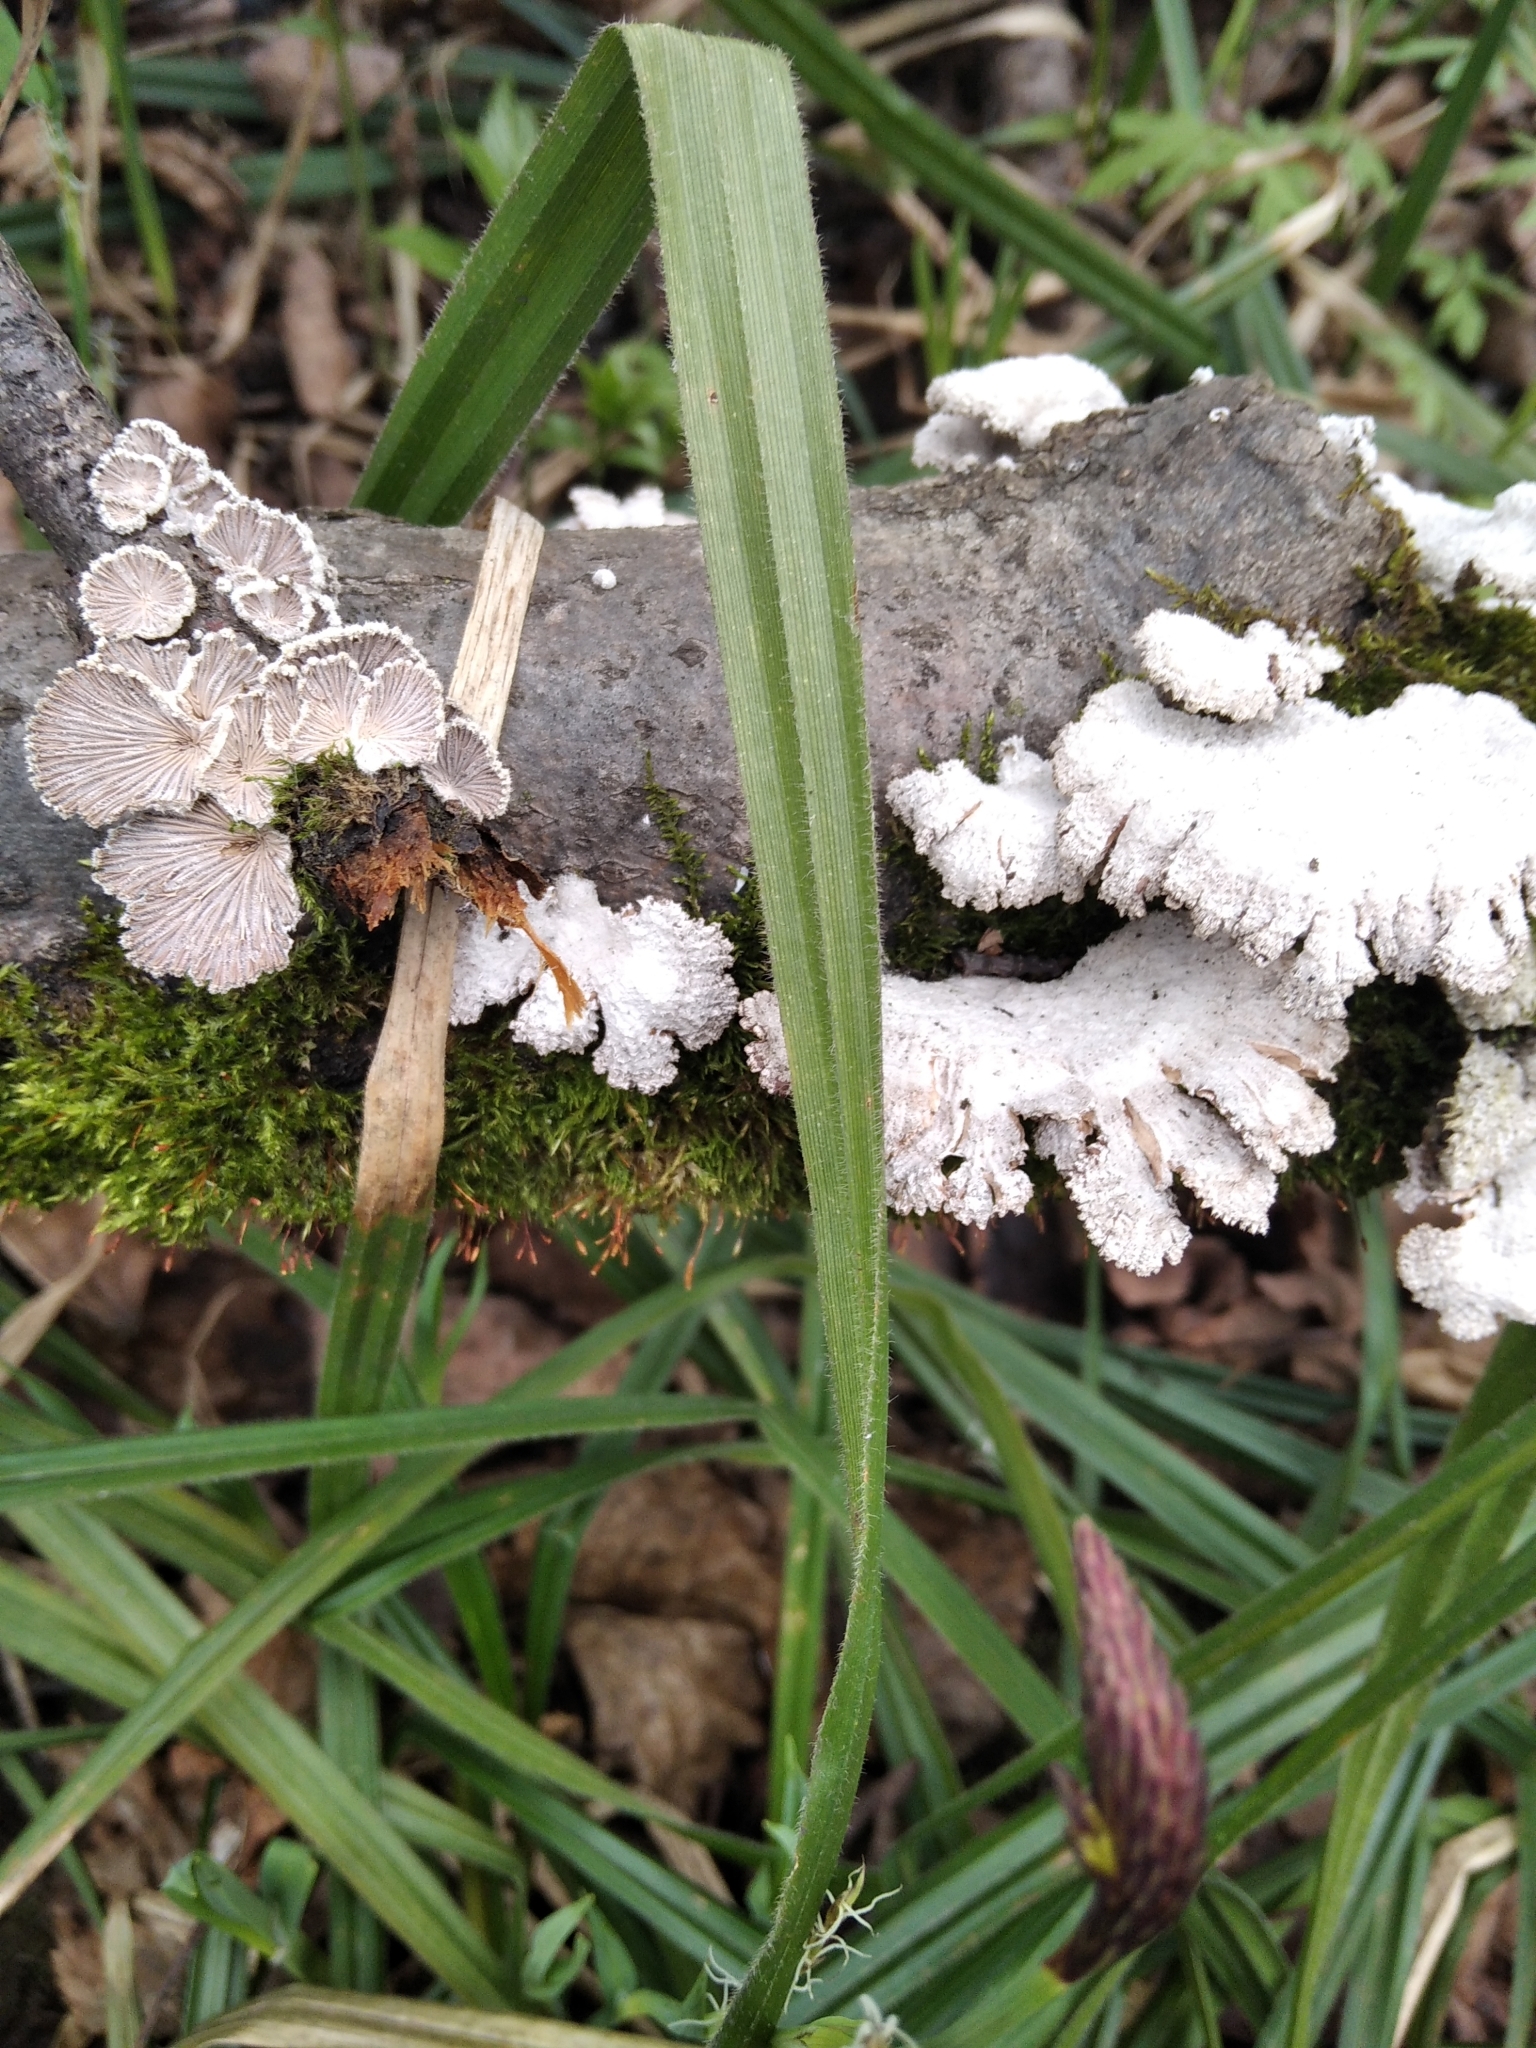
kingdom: Fungi
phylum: Basidiomycota
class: Agaricomycetes
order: Agaricales
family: Schizophyllaceae
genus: Schizophyllum
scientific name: Schizophyllum commune
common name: Common porecrust
